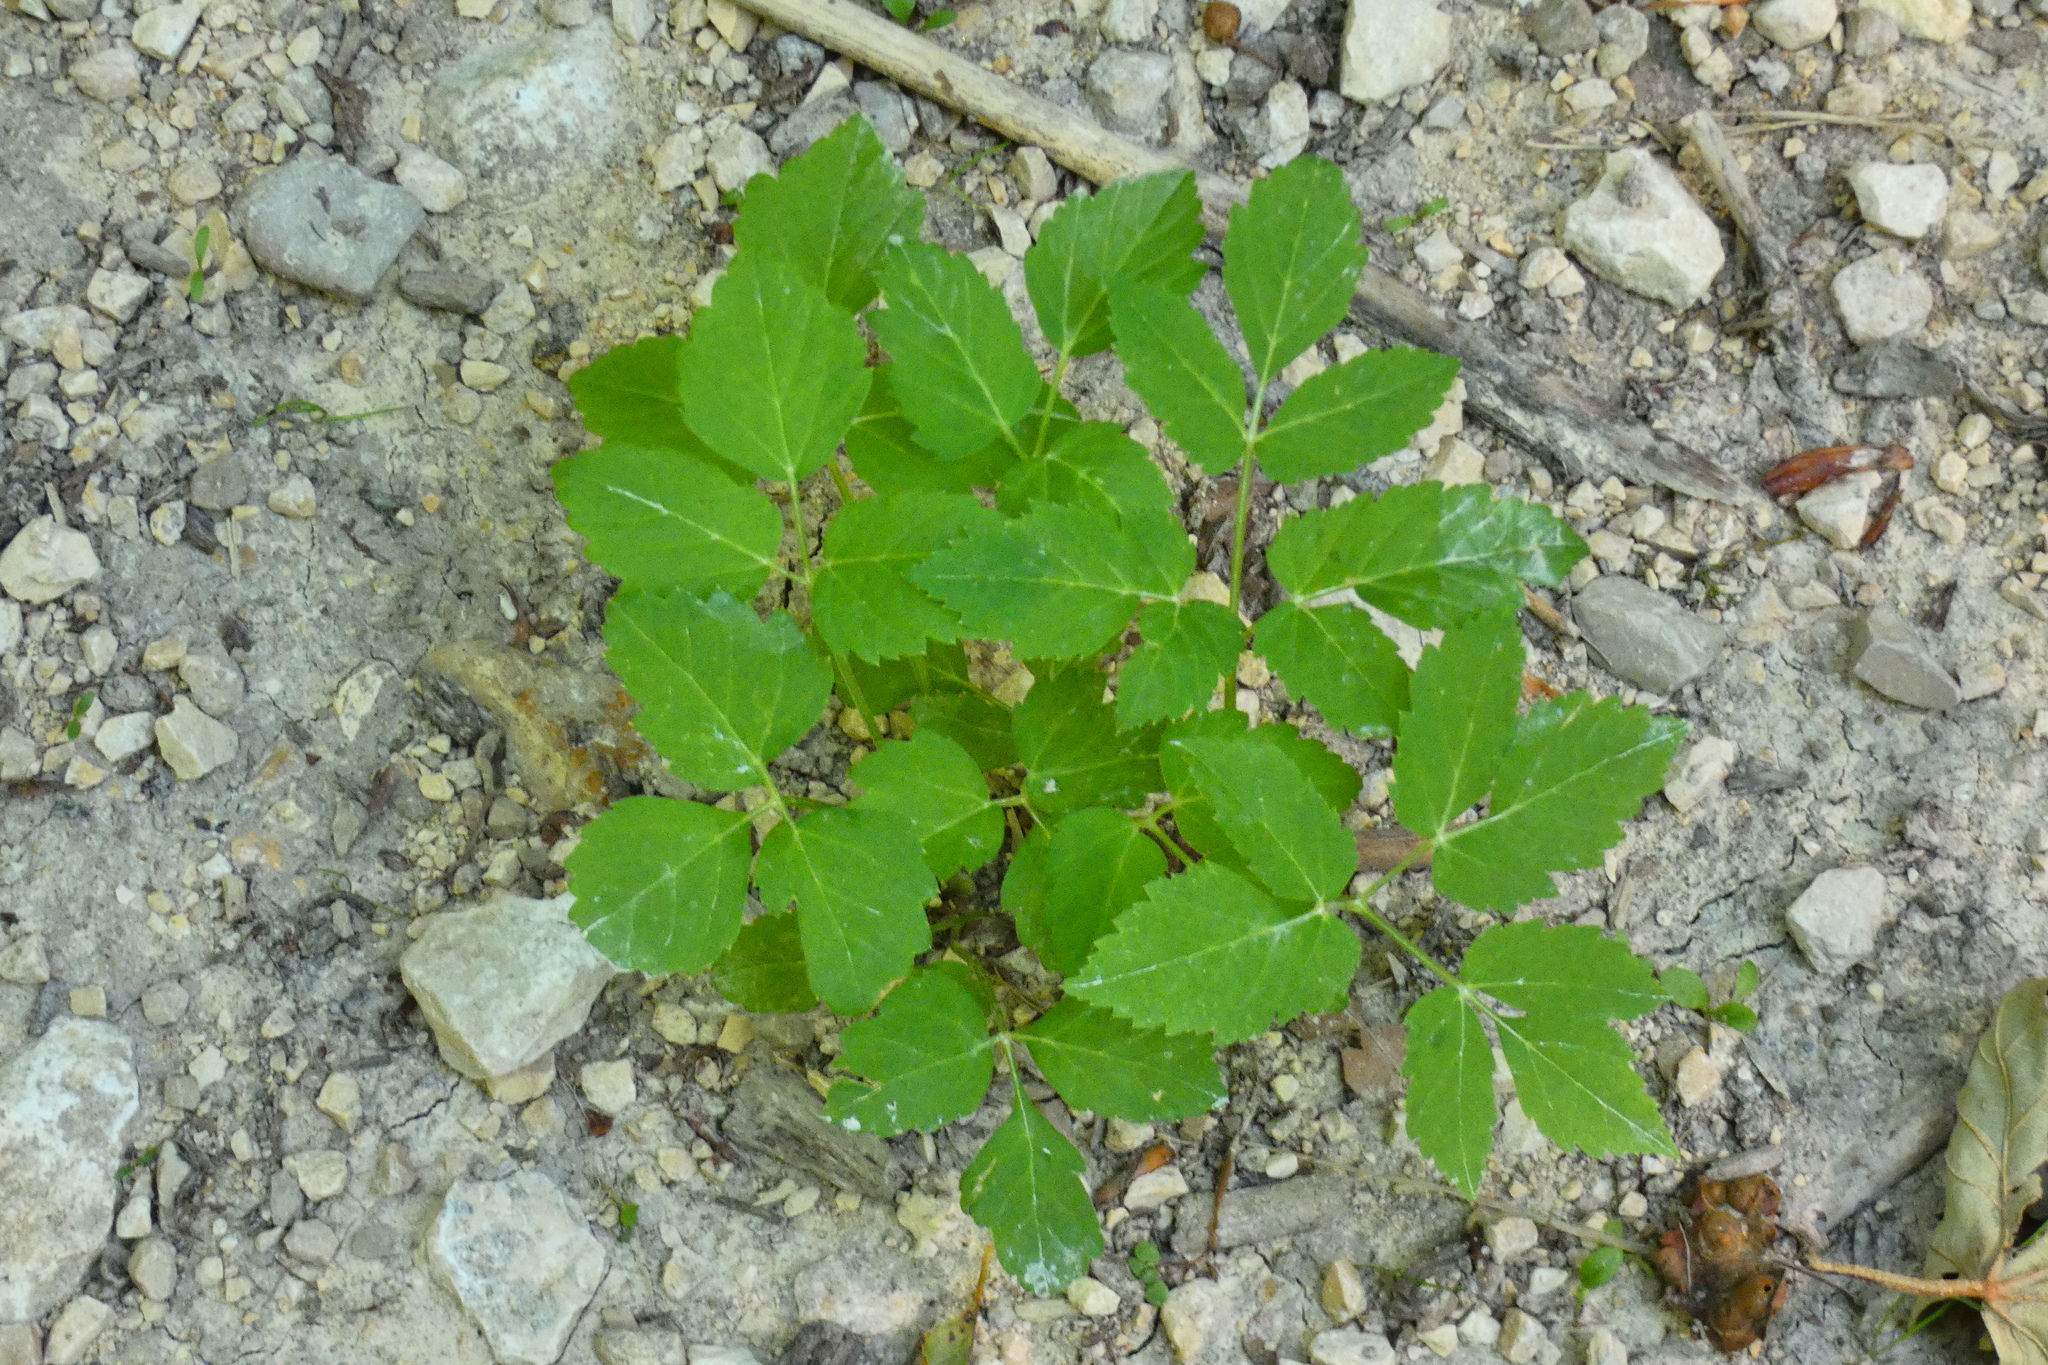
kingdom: Plantae
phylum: Tracheophyta
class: Magnoliopsida
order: Apiales
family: Apiaceae
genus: Aegopodium
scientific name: Aegopodium podagraria
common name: Ground-elder
